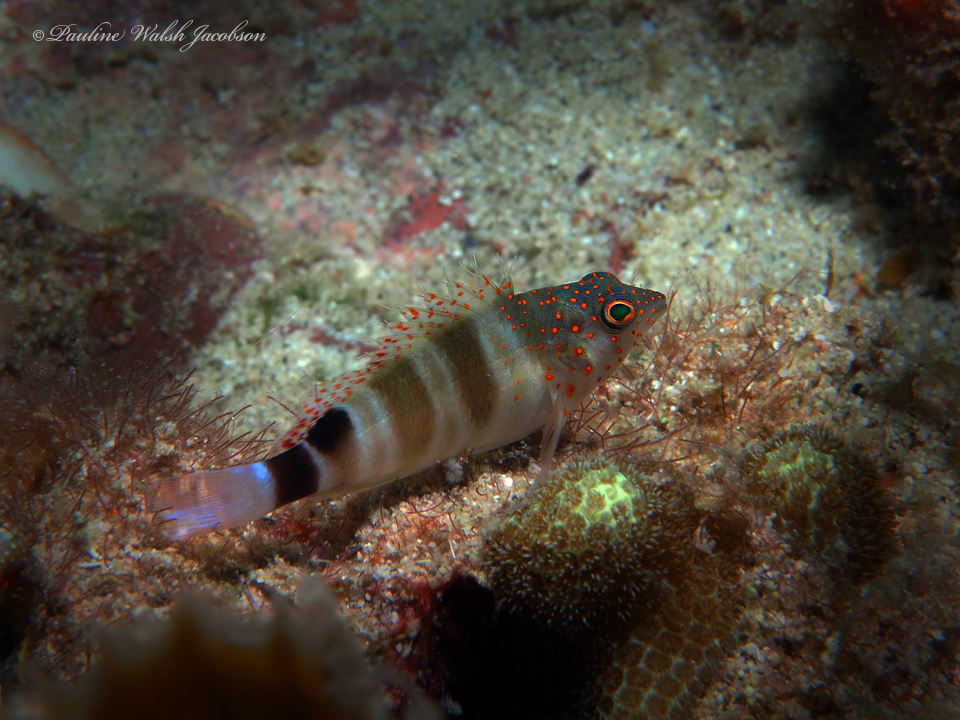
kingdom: Animalia
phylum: Chordata
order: Perciformes
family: Cirrhitidae
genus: Amblycirrhitus
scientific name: Amblycirrhitus pinos
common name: Redspotted hawkfish
